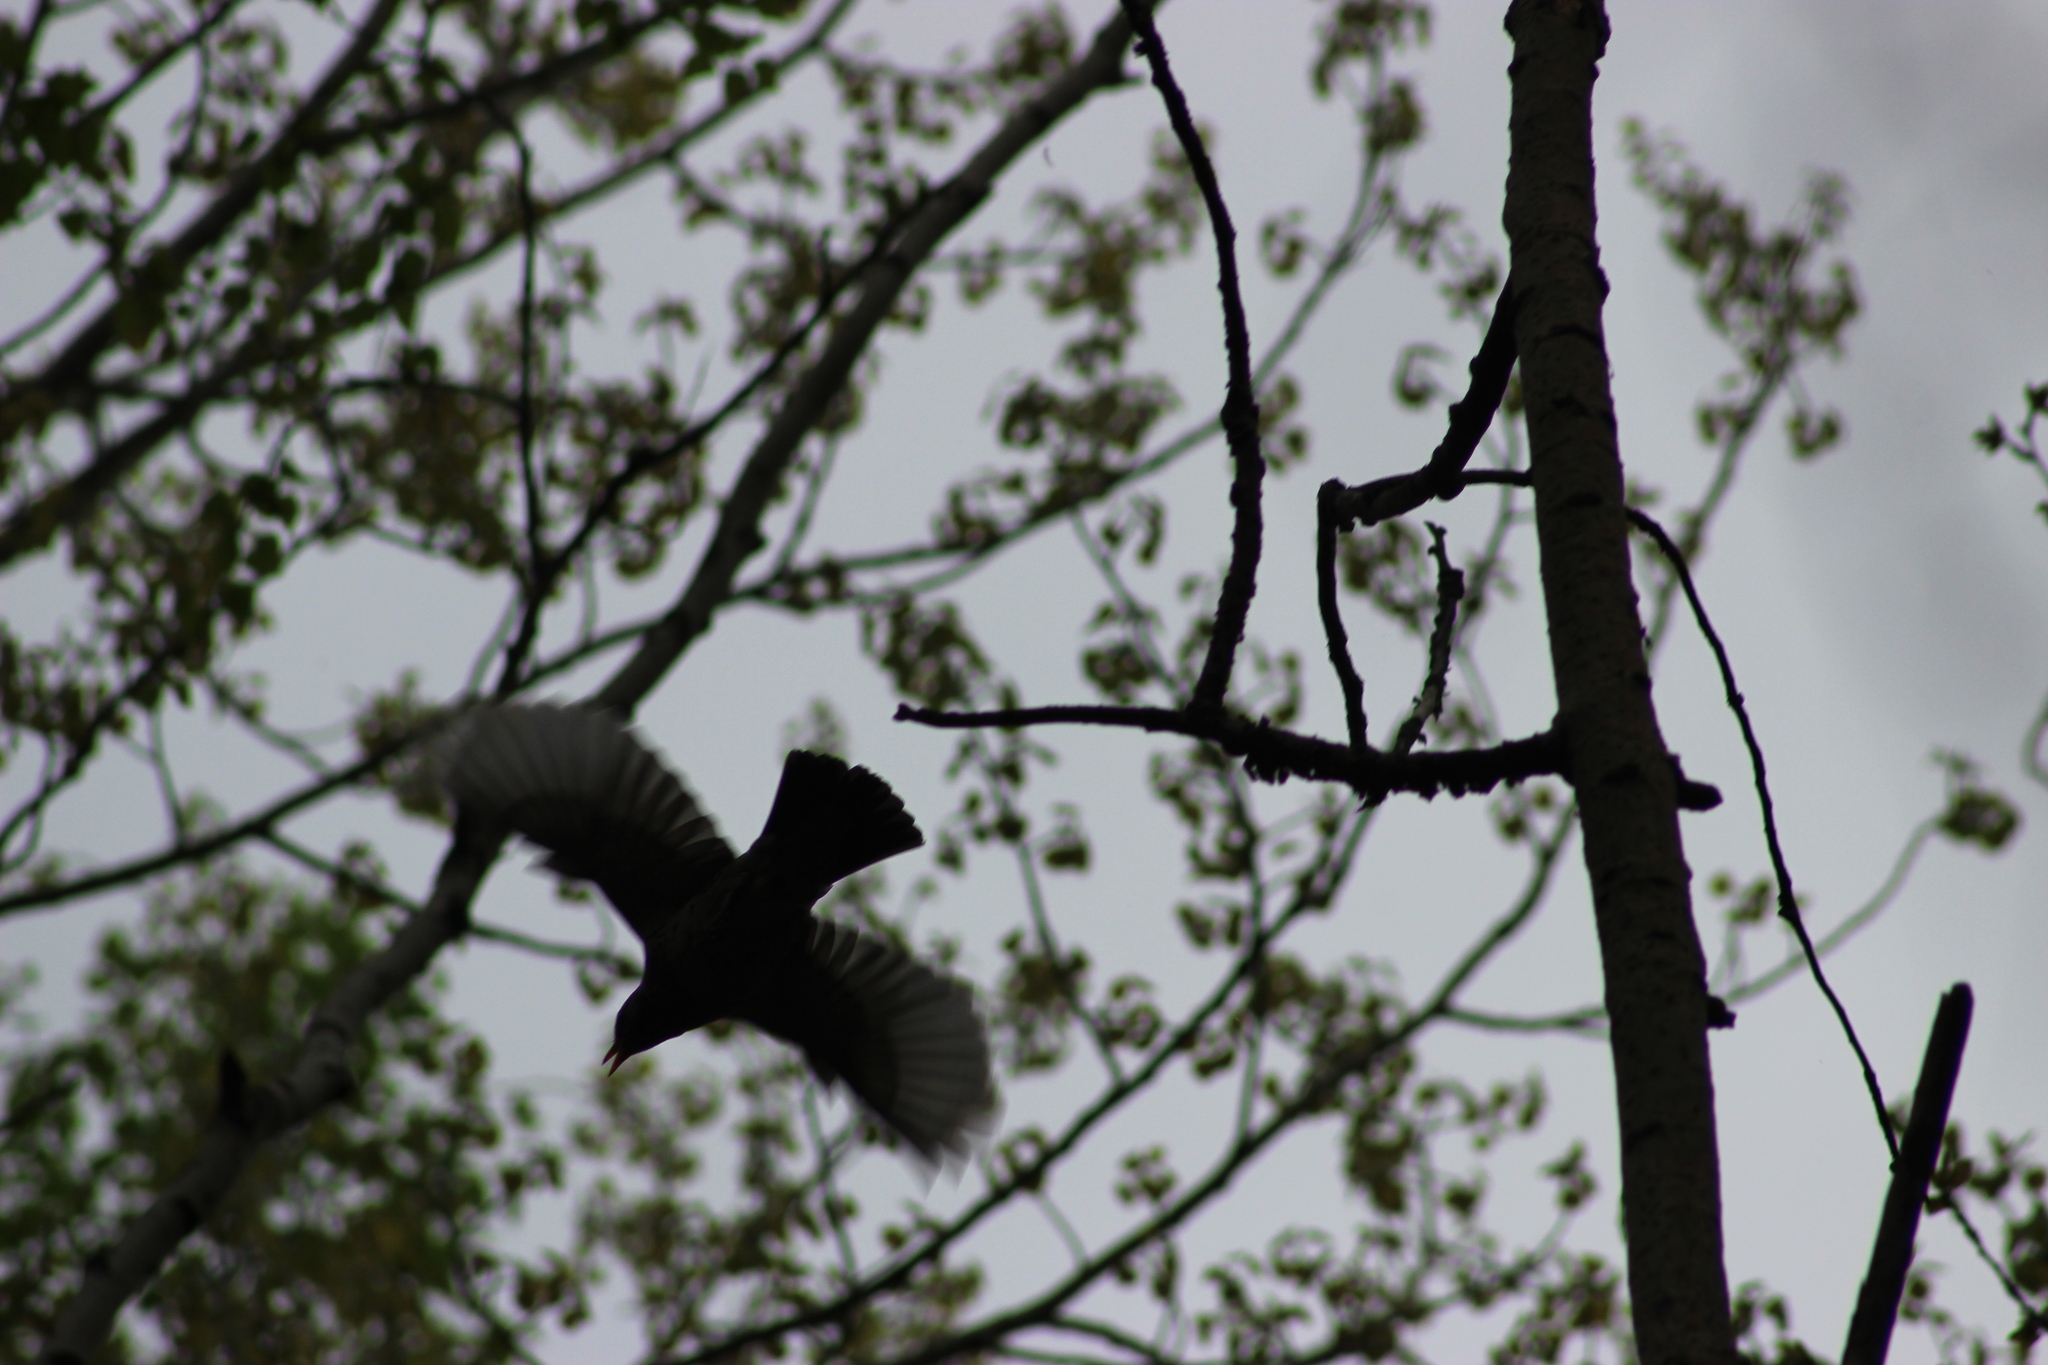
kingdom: Animalia
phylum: Chordata
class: Aves
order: Passeriformes
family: Turdidae
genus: Turdus
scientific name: Turdus pilaris
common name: Fieldfare
